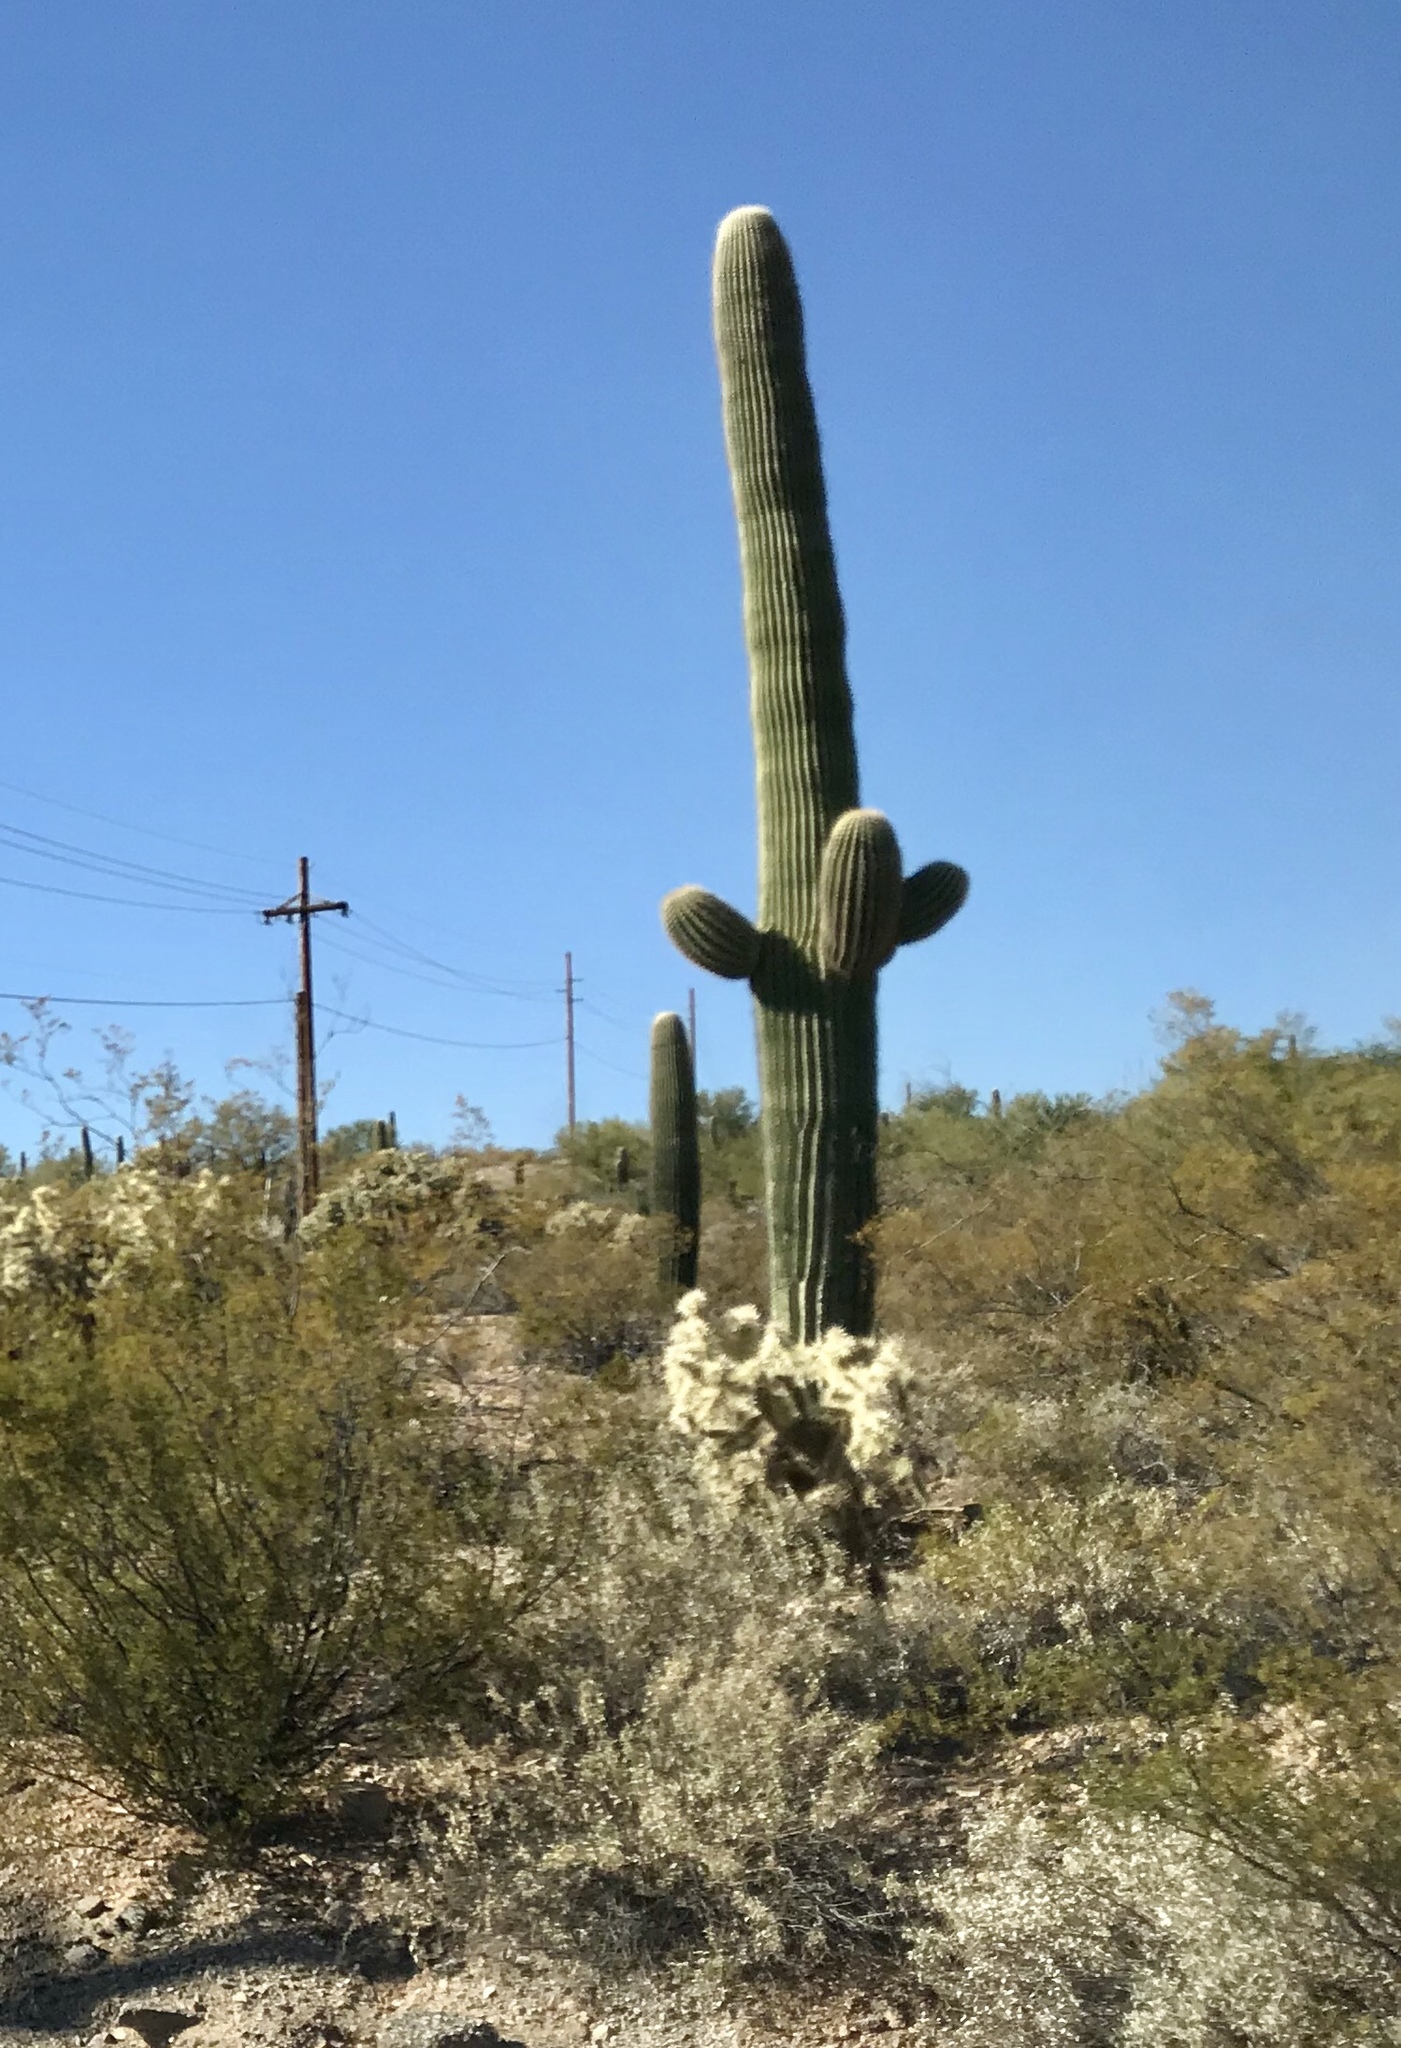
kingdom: Plantae
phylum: Tracheophyta
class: Magnoliopsida
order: Caryophyllales
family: Cactaceae
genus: Carnegiea
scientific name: Carnegiea gigantea
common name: Saguaro
